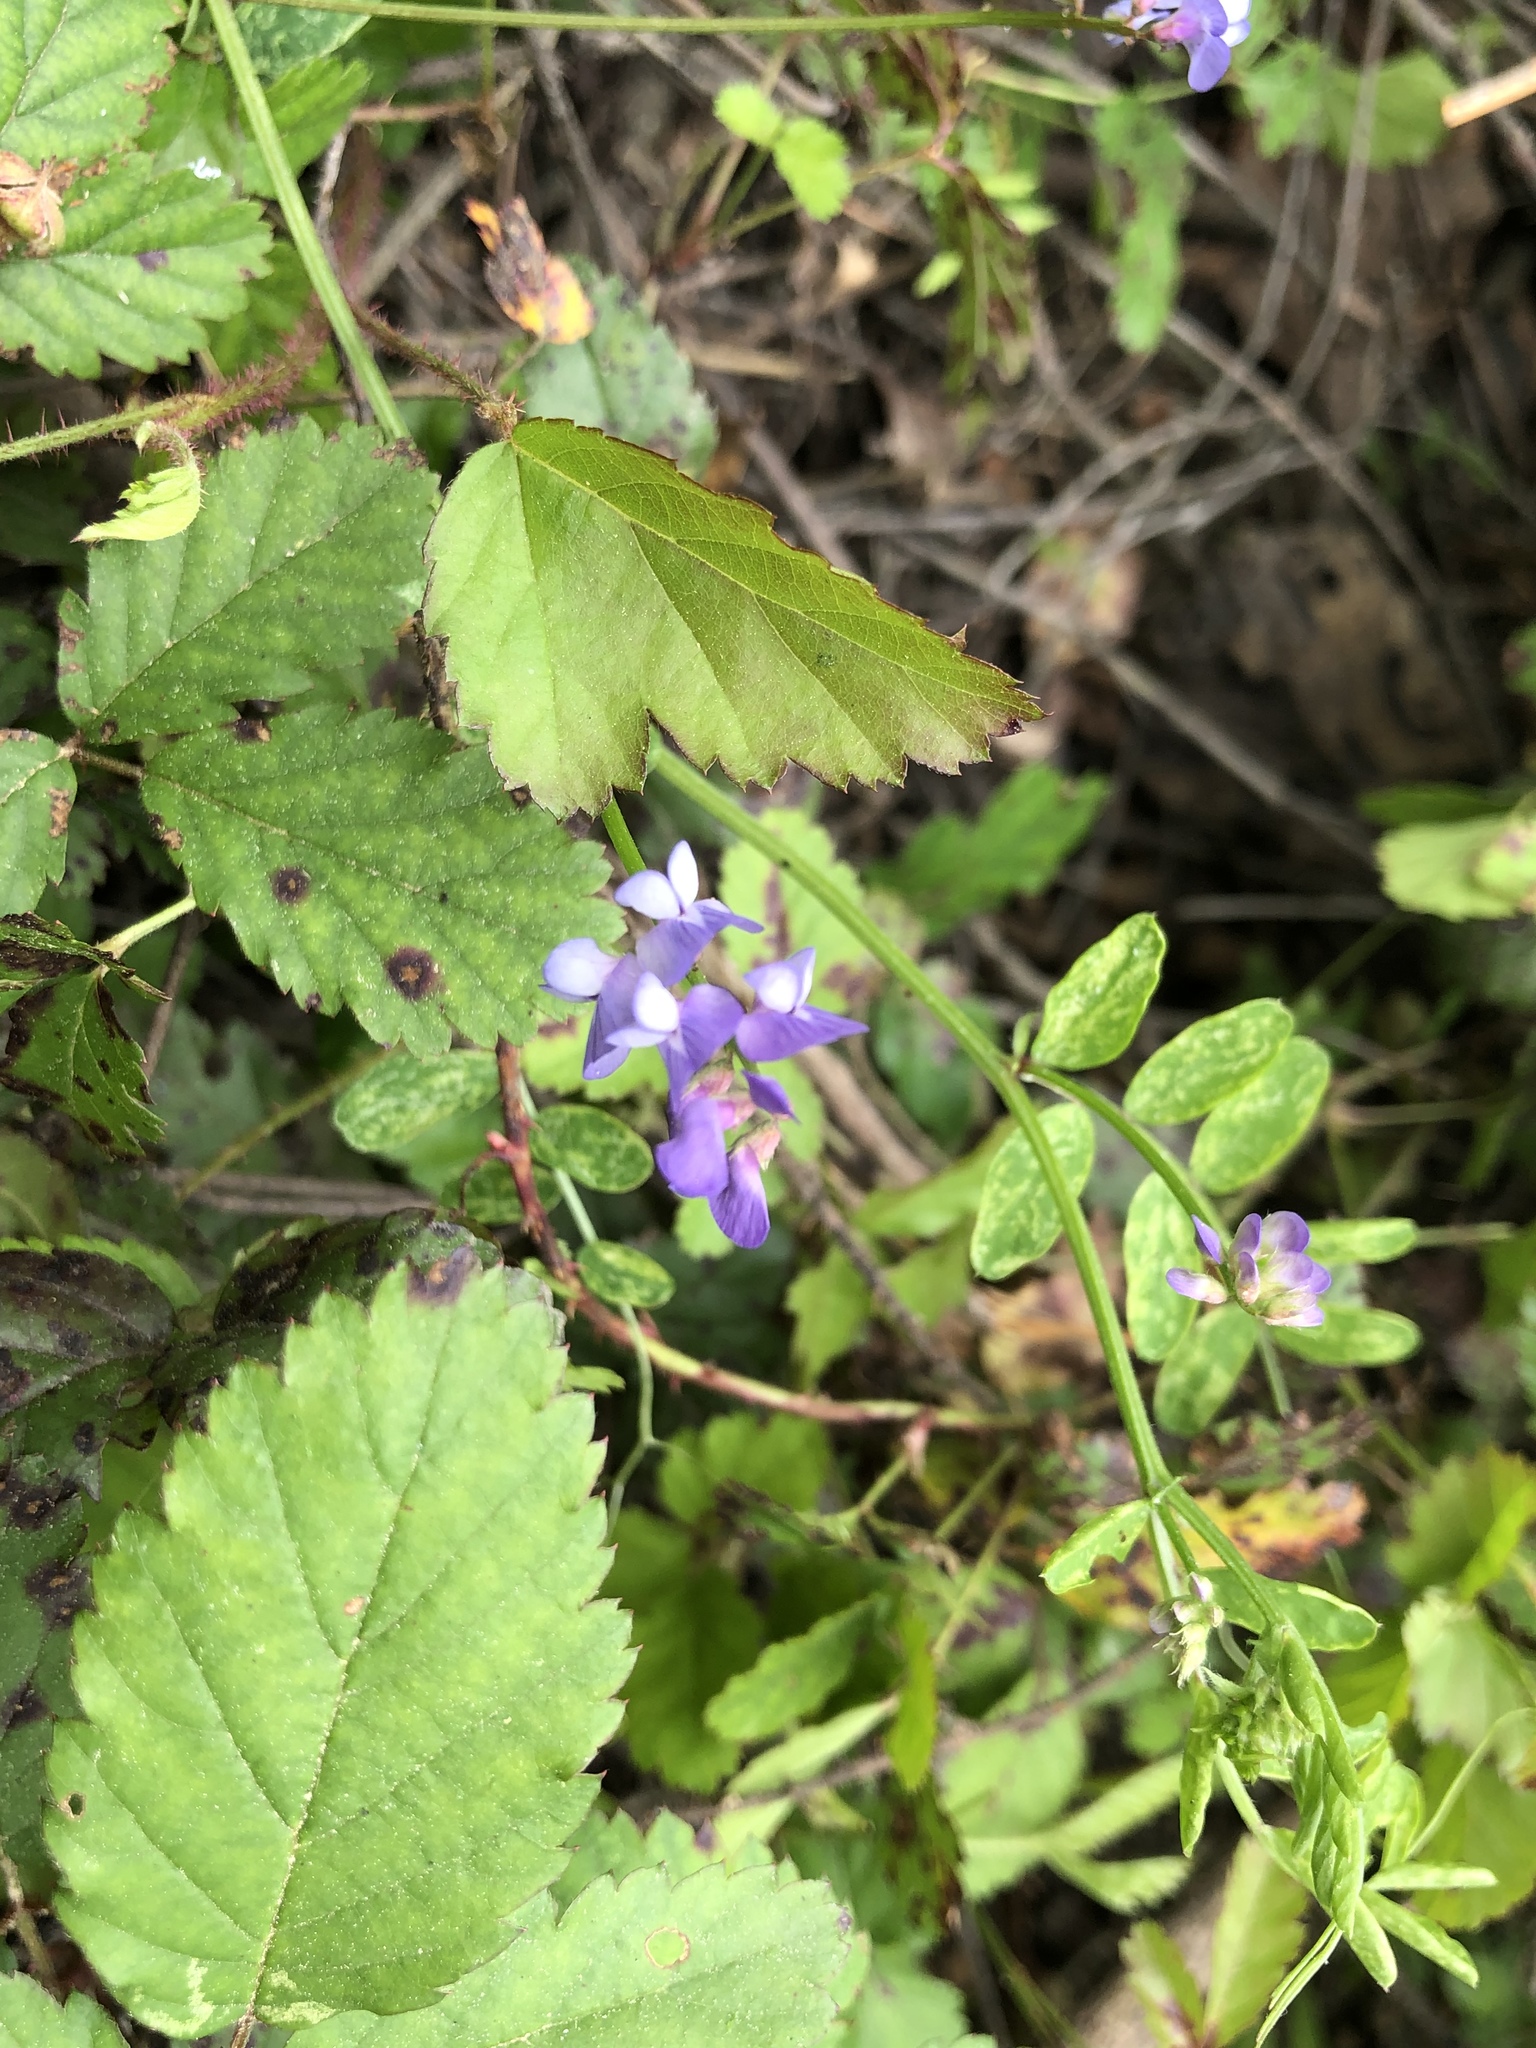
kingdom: Plantae
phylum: Tracheophyta
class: Magnoliopsida
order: Fabales
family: Fabaceae
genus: Vicia
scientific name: Vicia ludoviciana
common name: Louisiana vetch
